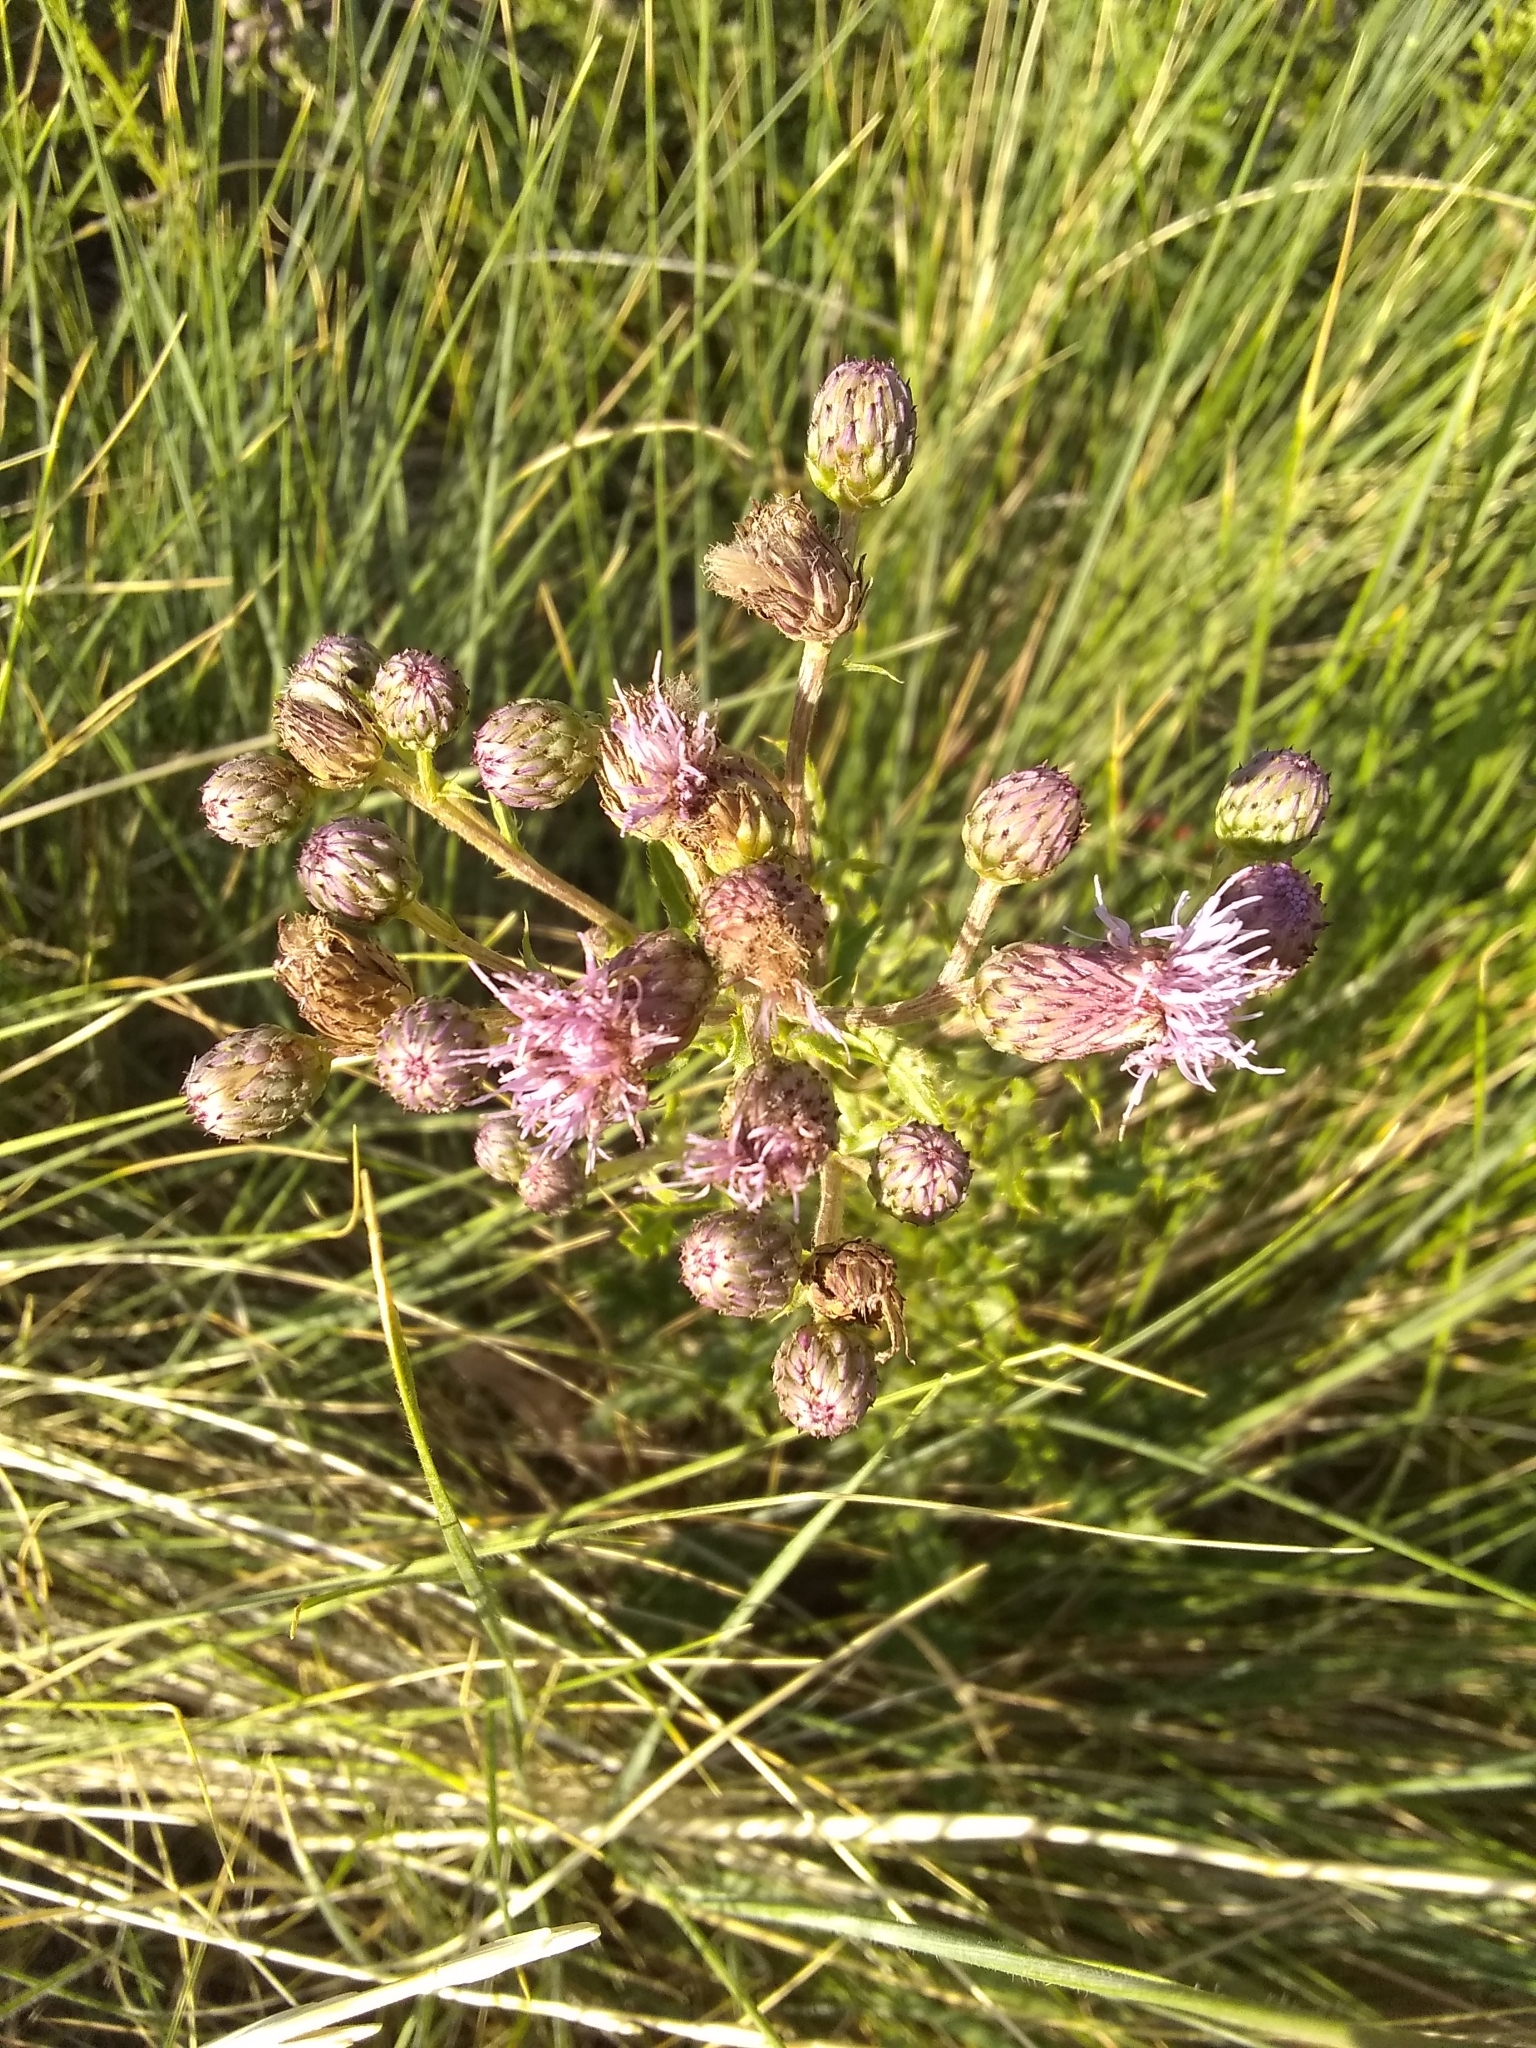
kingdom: Plantae
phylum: Tracheophyta
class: Magnoliopsida
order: Asterales
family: Asteraceae
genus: Cirsium
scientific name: Cirsium arvense
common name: Creeping thistle
